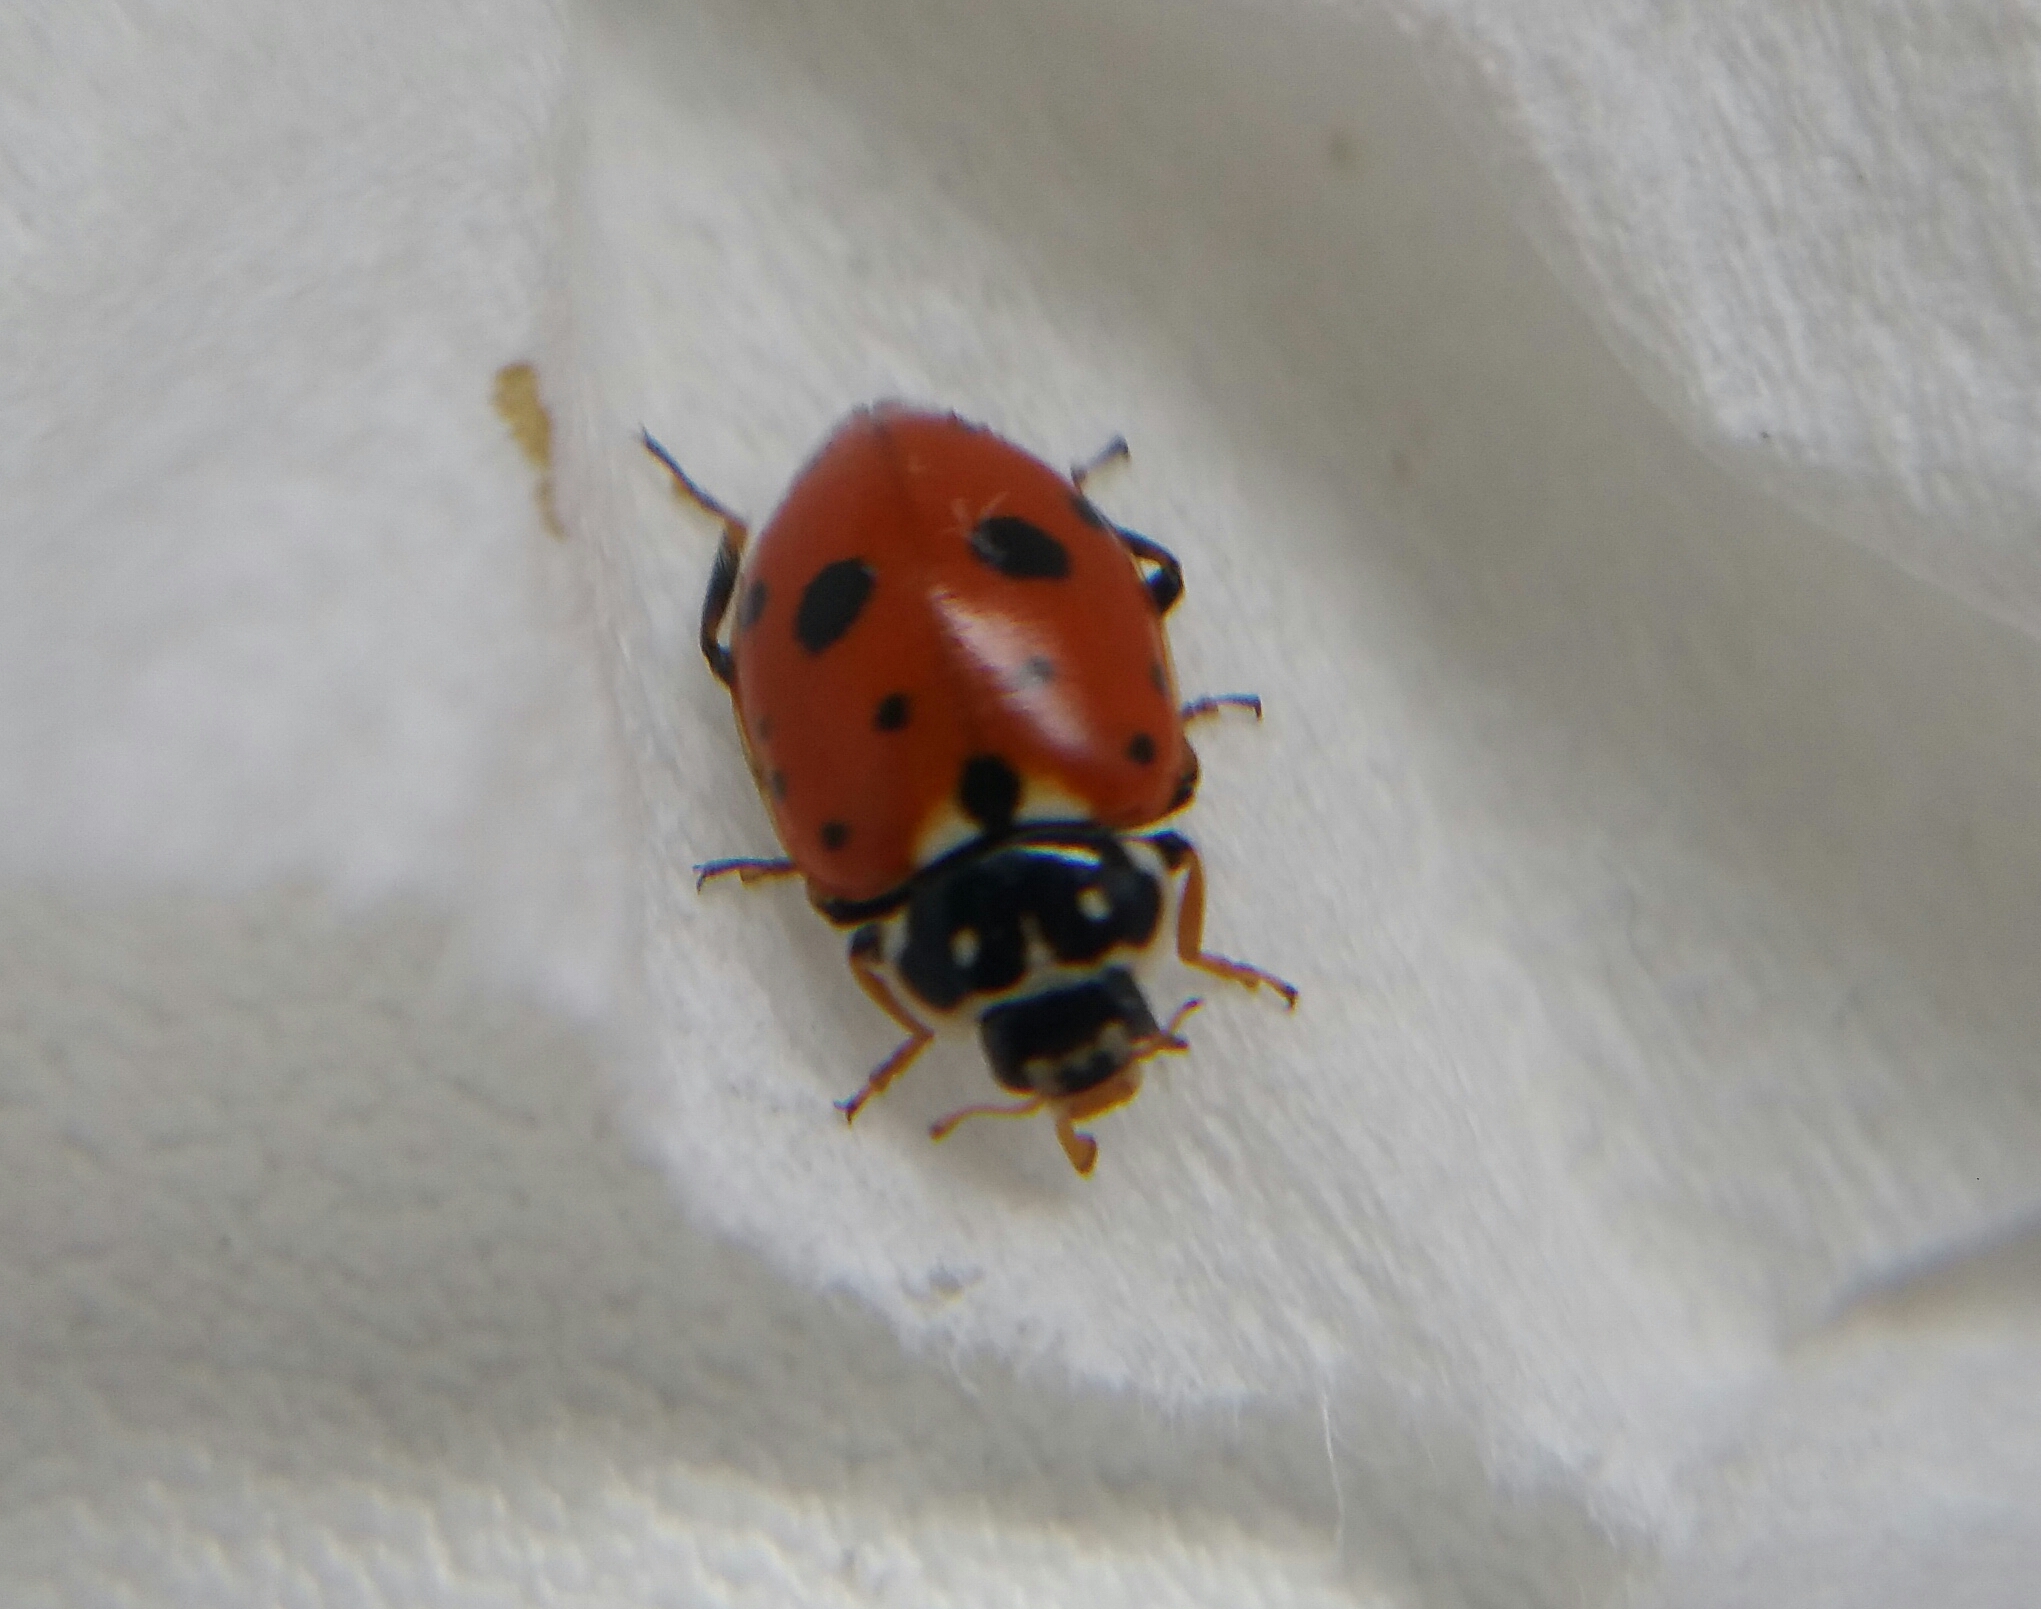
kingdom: Animalia
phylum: Arthropoda
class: Insecta
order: Coleoptera
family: Coccinellidae
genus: Hippodamia
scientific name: Hippodamia variegata
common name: Ladybird beetle
